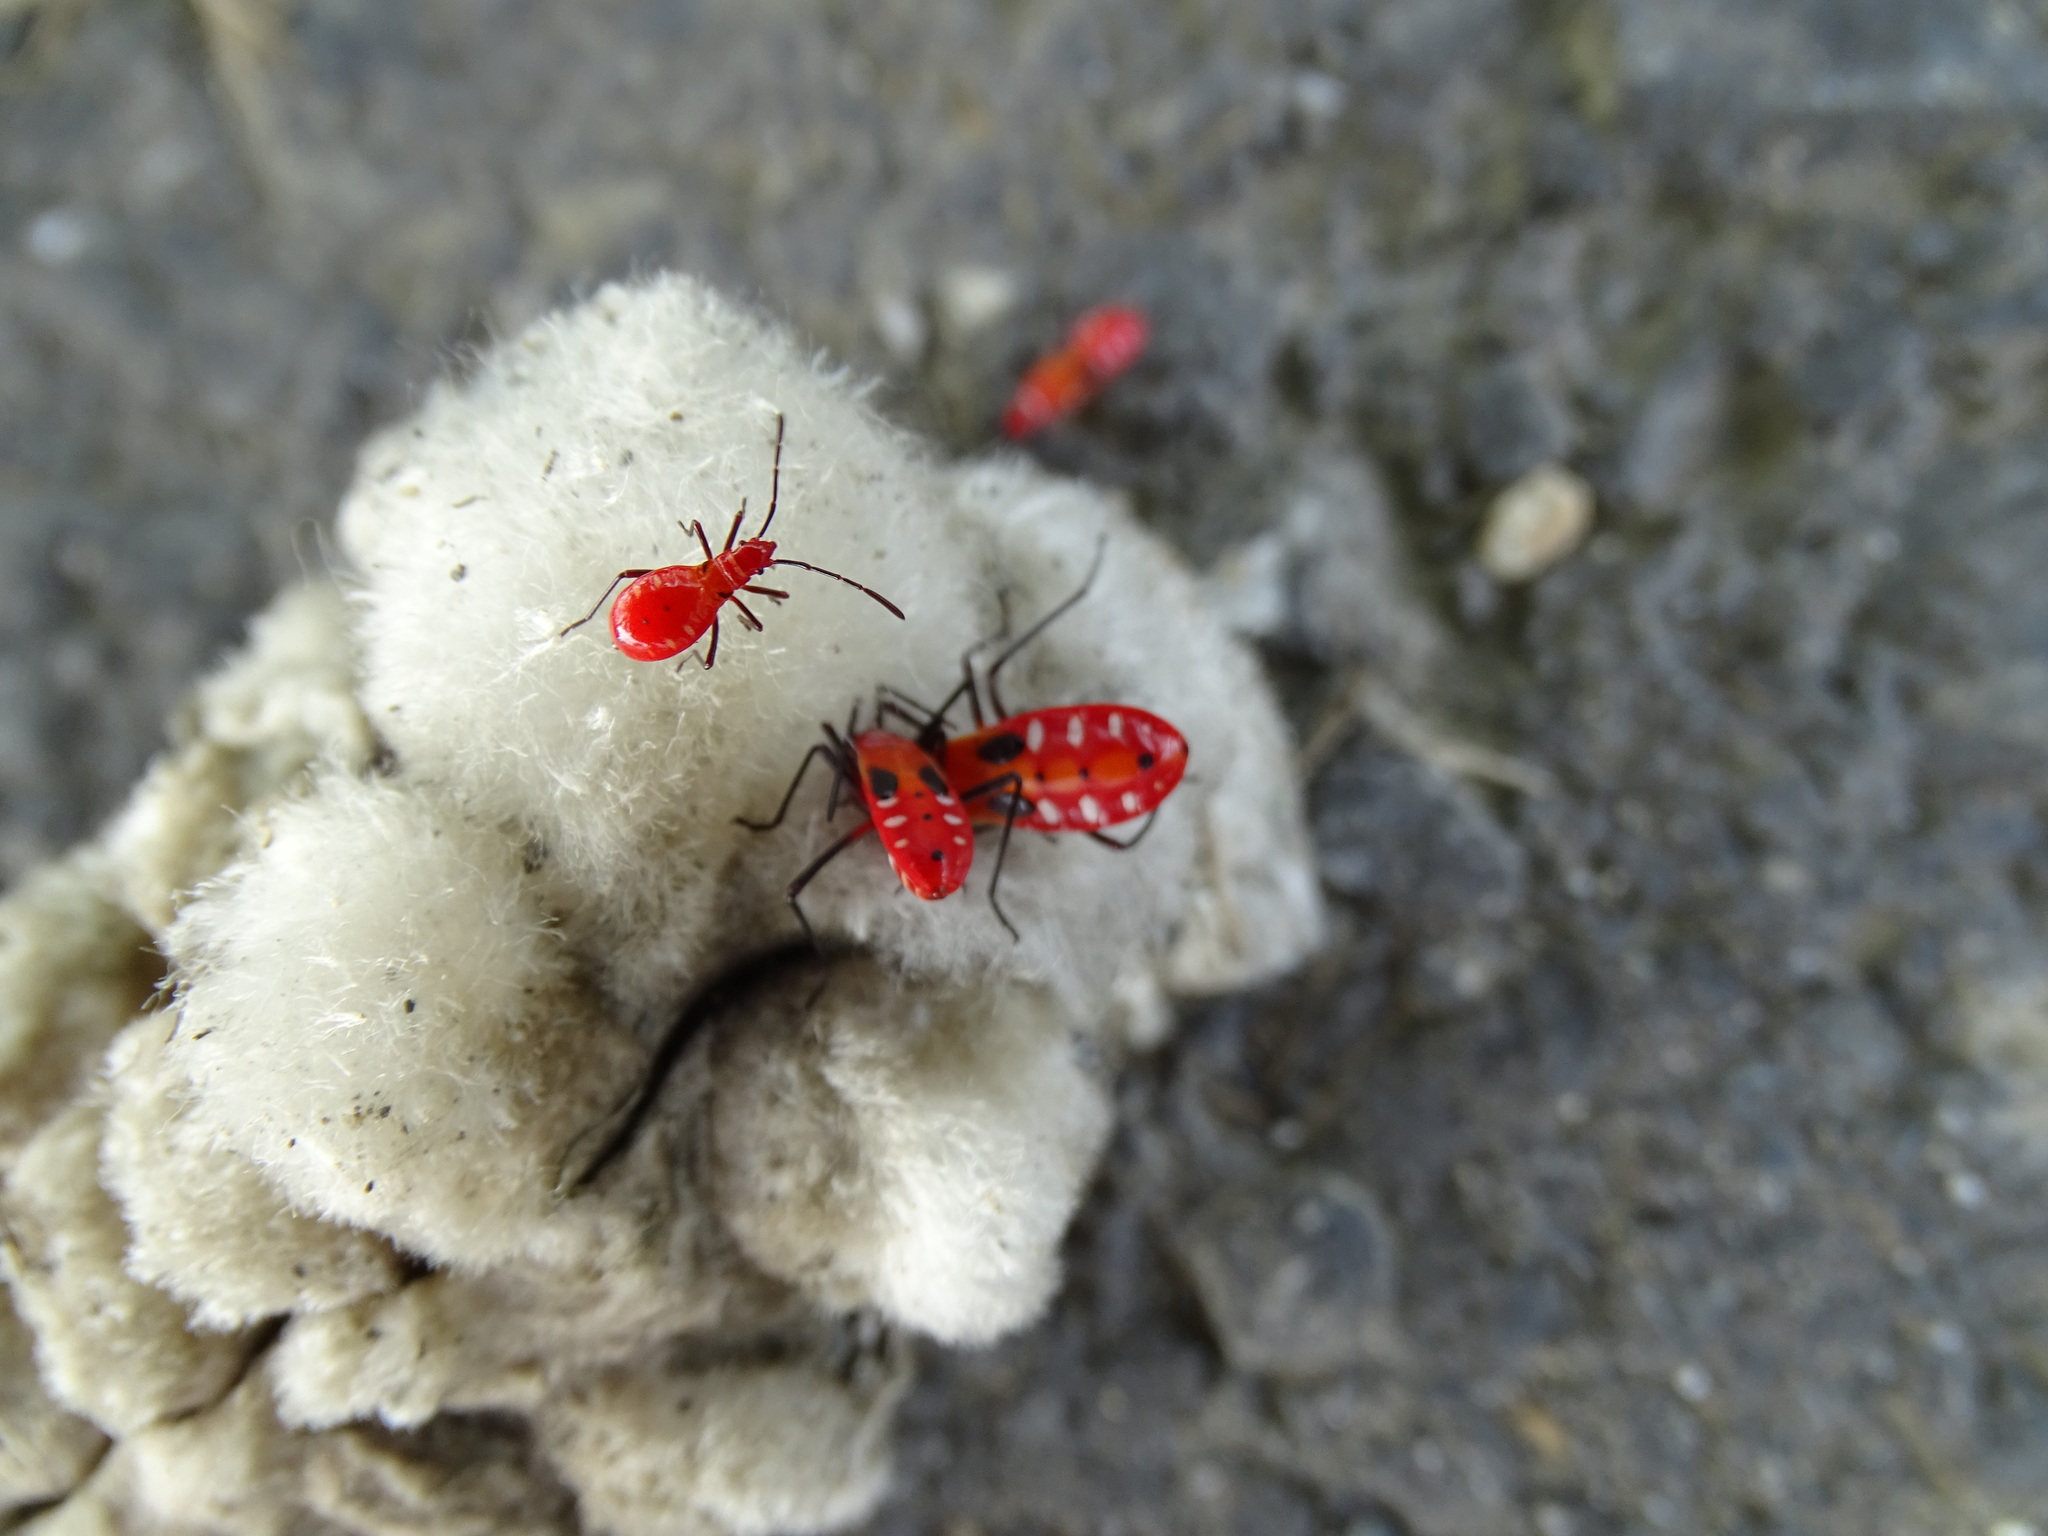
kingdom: Animalia
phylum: Arthropoda
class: Insecta
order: Hemiptera
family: Pyrrhocoridae
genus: Dysdercus
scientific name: Dysdercus cingulatus
